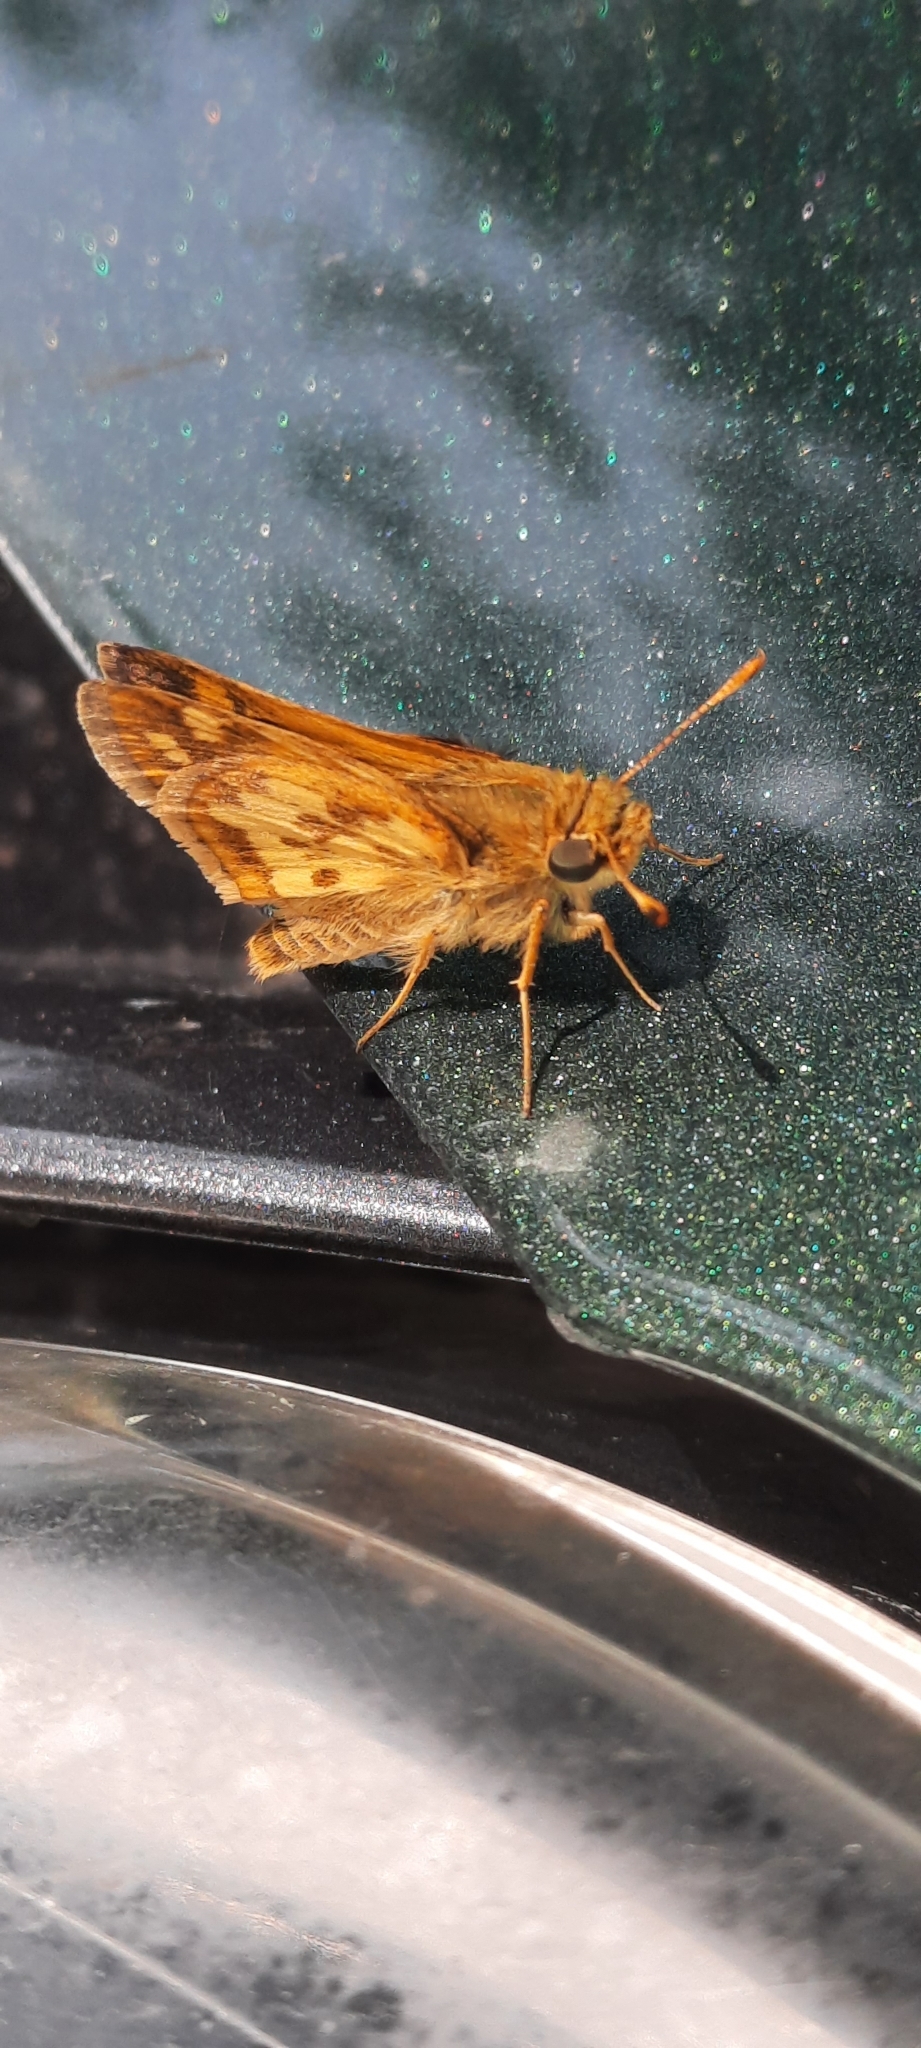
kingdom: Animalia
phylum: Arthropoda
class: Insecta
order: Lepidoptera
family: Hesperiidae
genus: Polites
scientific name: Polites coras
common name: Peck's skipper
